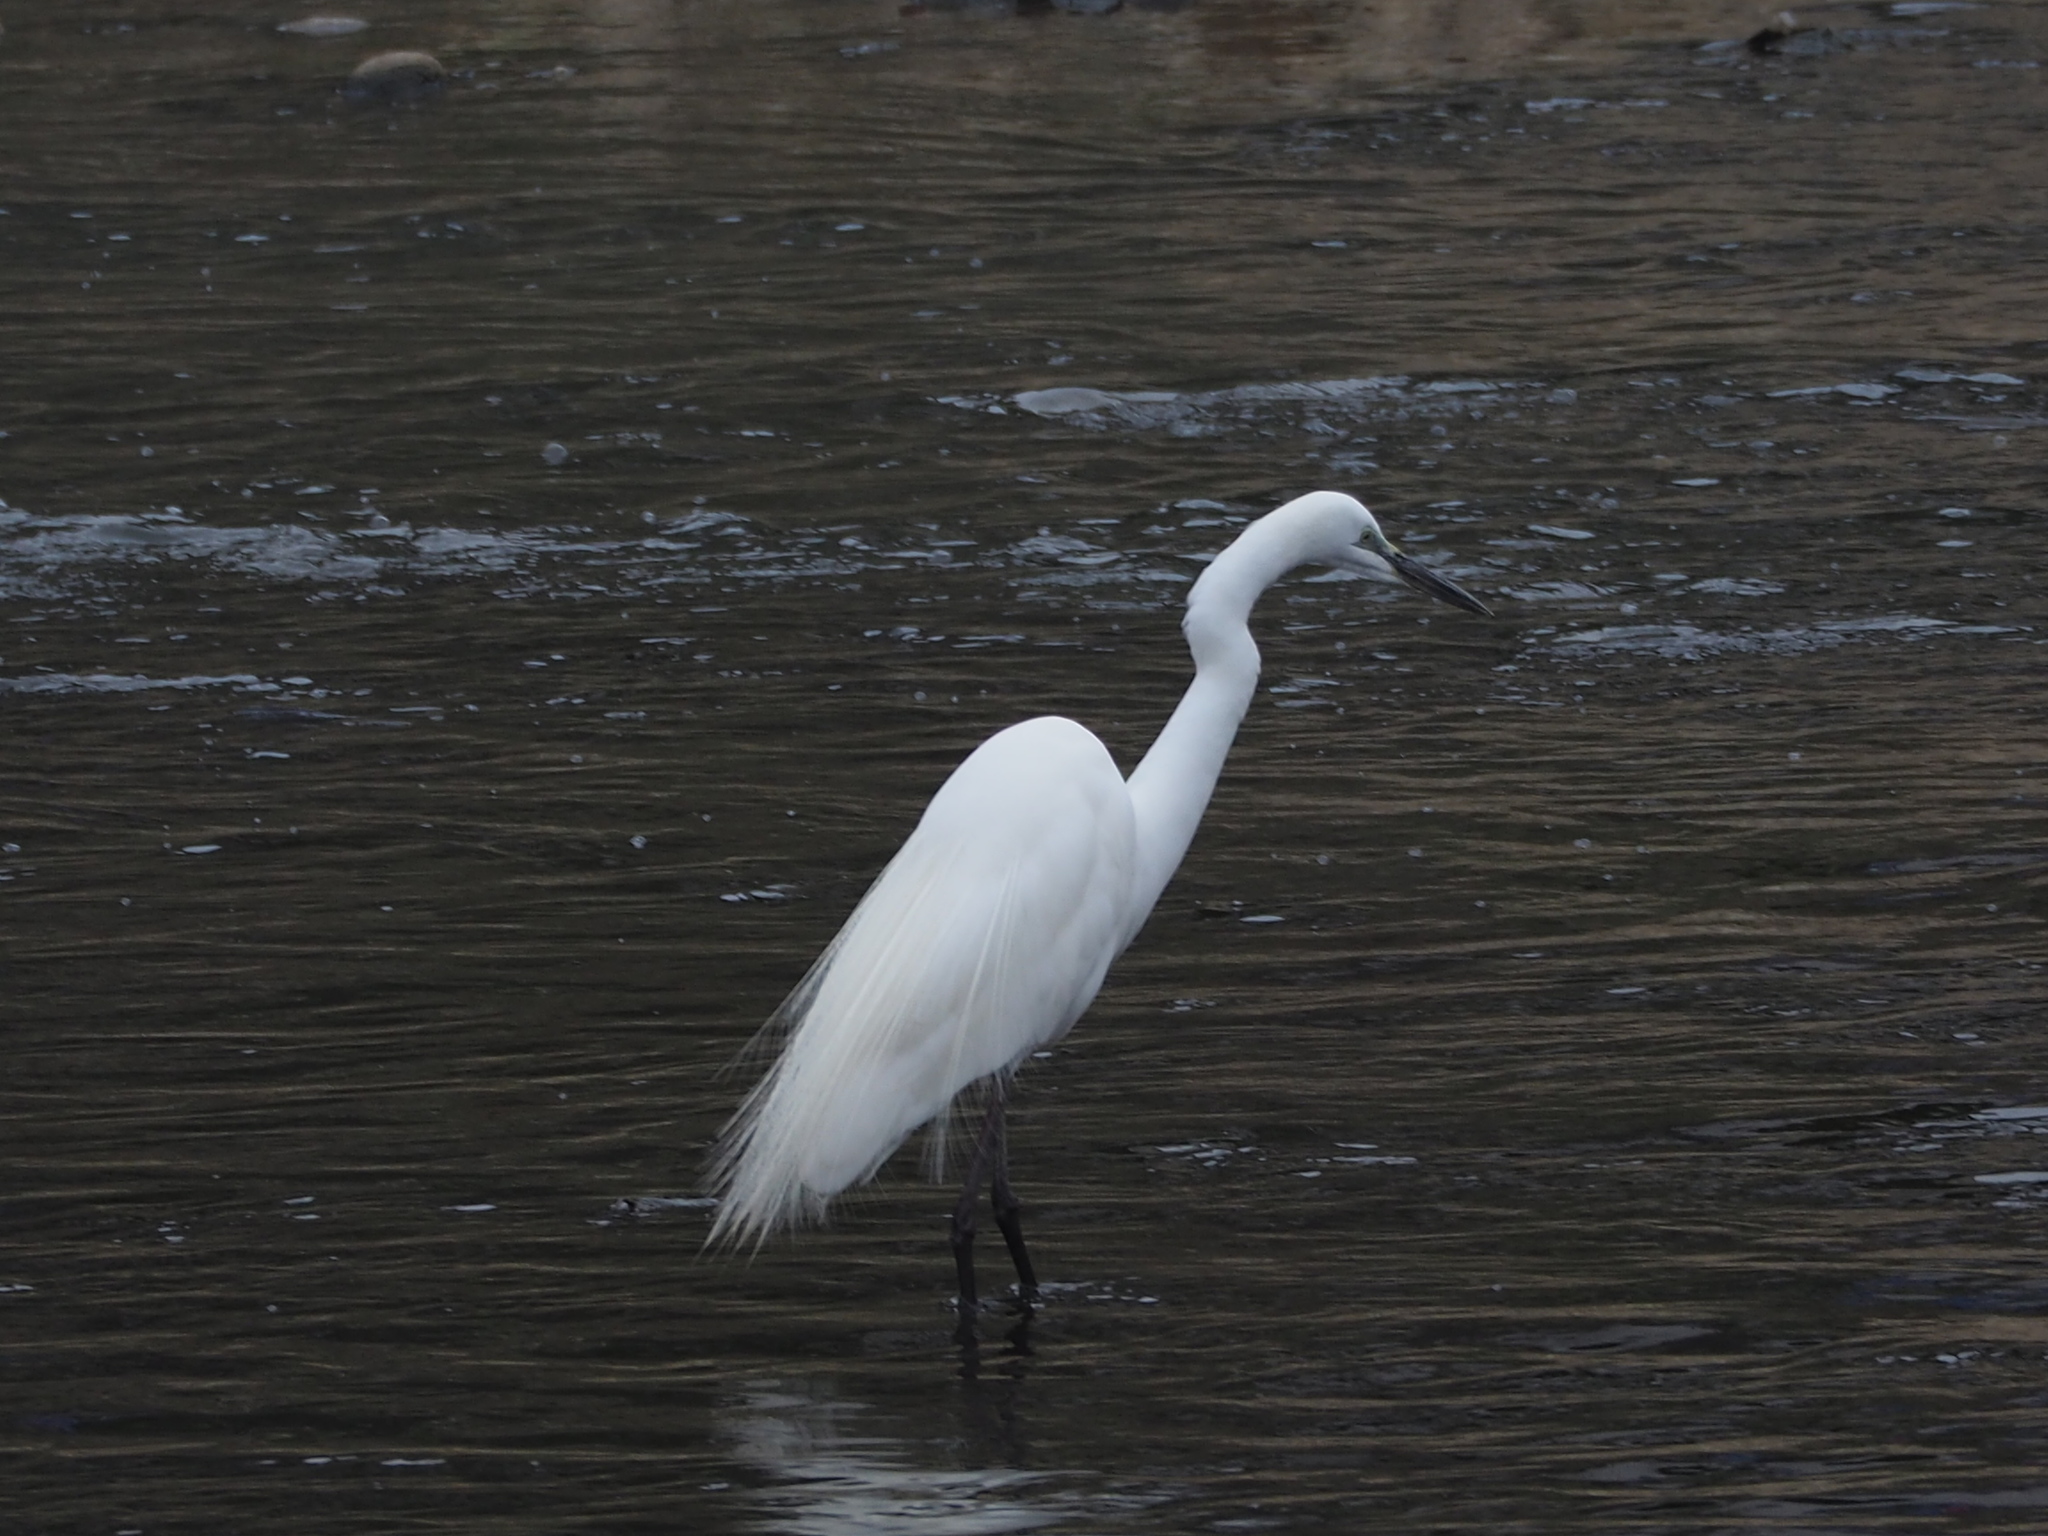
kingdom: Animalia
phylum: Chordata
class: Aves
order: Pelecaniformes
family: Ardeidae
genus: Ardea
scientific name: Ardea alba
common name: Great egret
